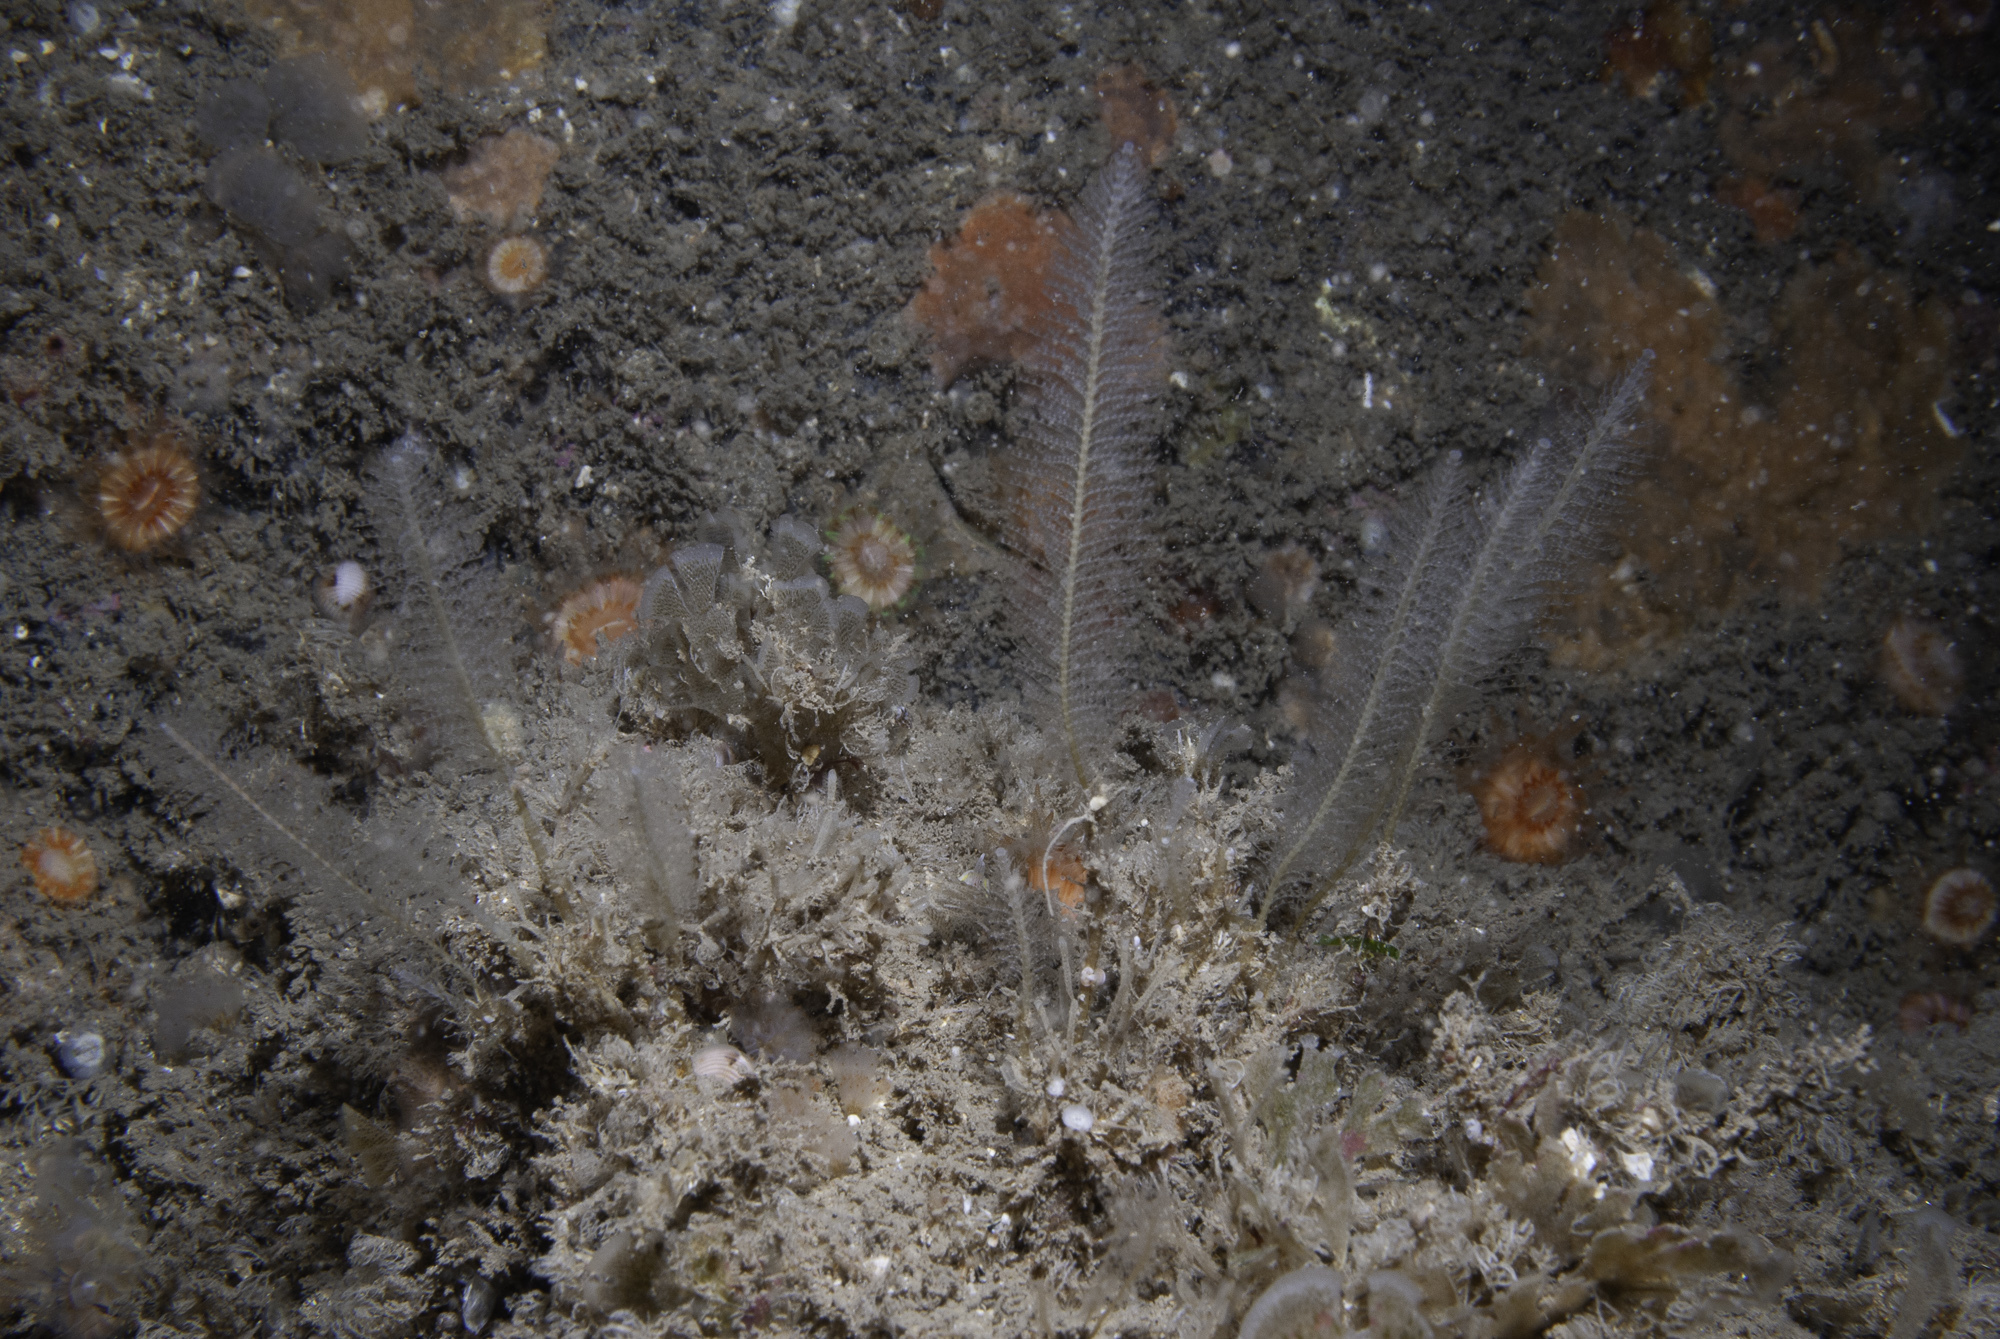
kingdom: Animalia
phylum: Cnidaria
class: Hydrozoa
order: Leptothecata
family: Plumulariidae
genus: Nemertesia
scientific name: Nemertesia antennina
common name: Sea beard
